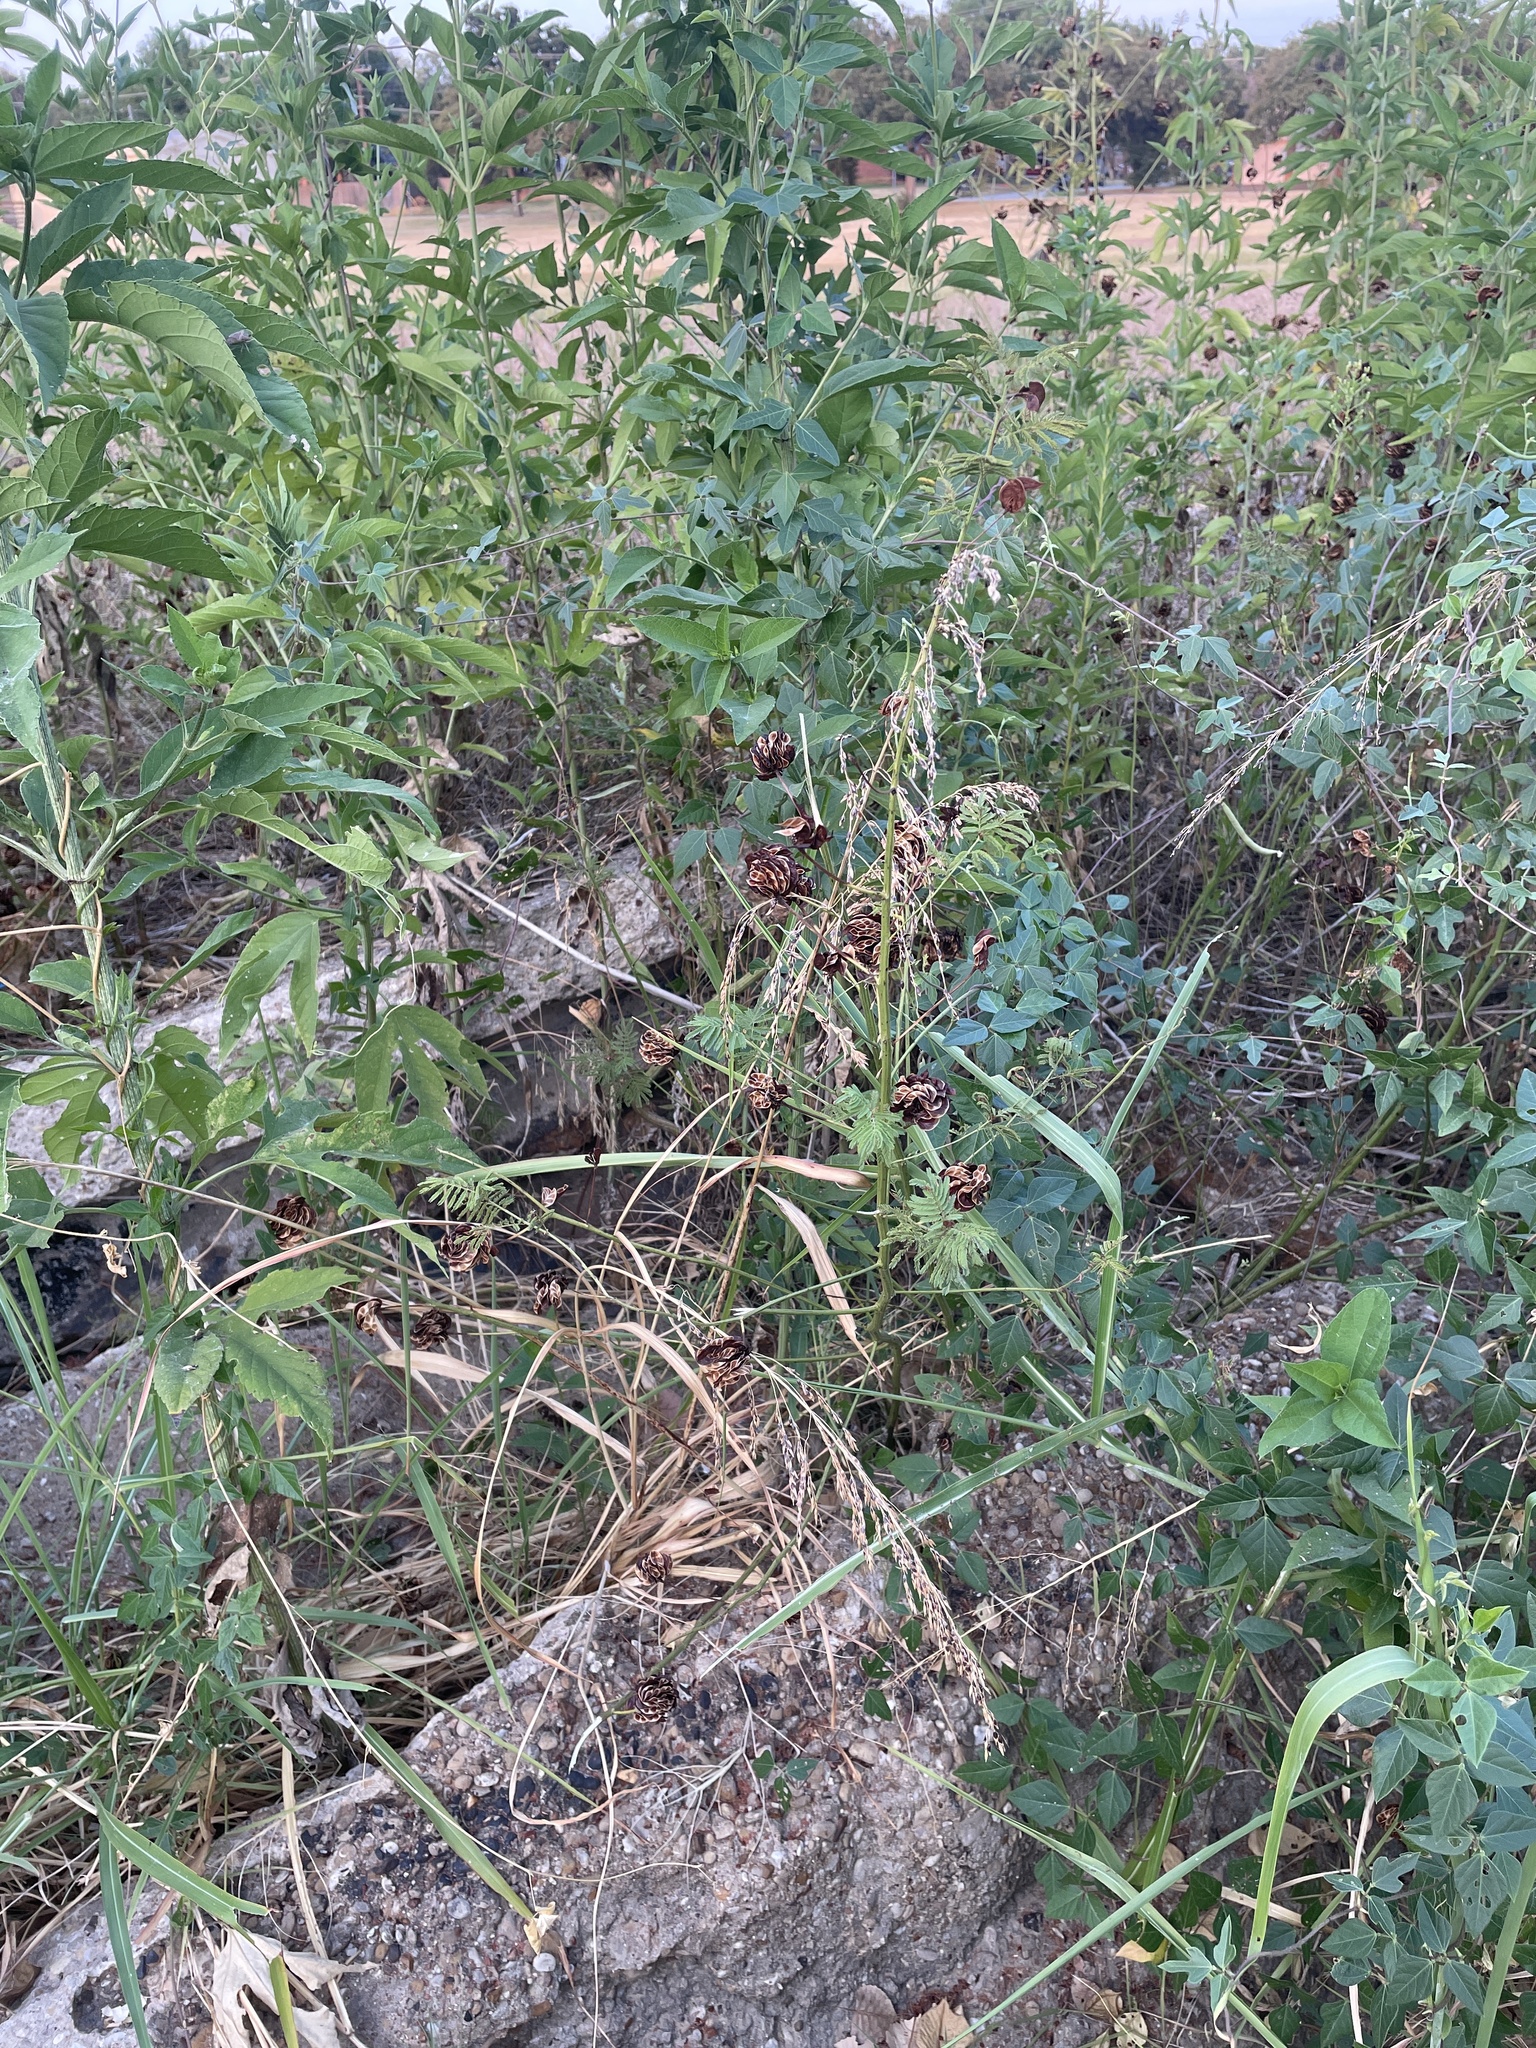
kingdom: Plantae
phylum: Tracheophyta
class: Magnoliopsida
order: Fabales
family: Fabaceae
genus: Desmanthus
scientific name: Desmanthus illinoensis
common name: Illinois bundle-flower
